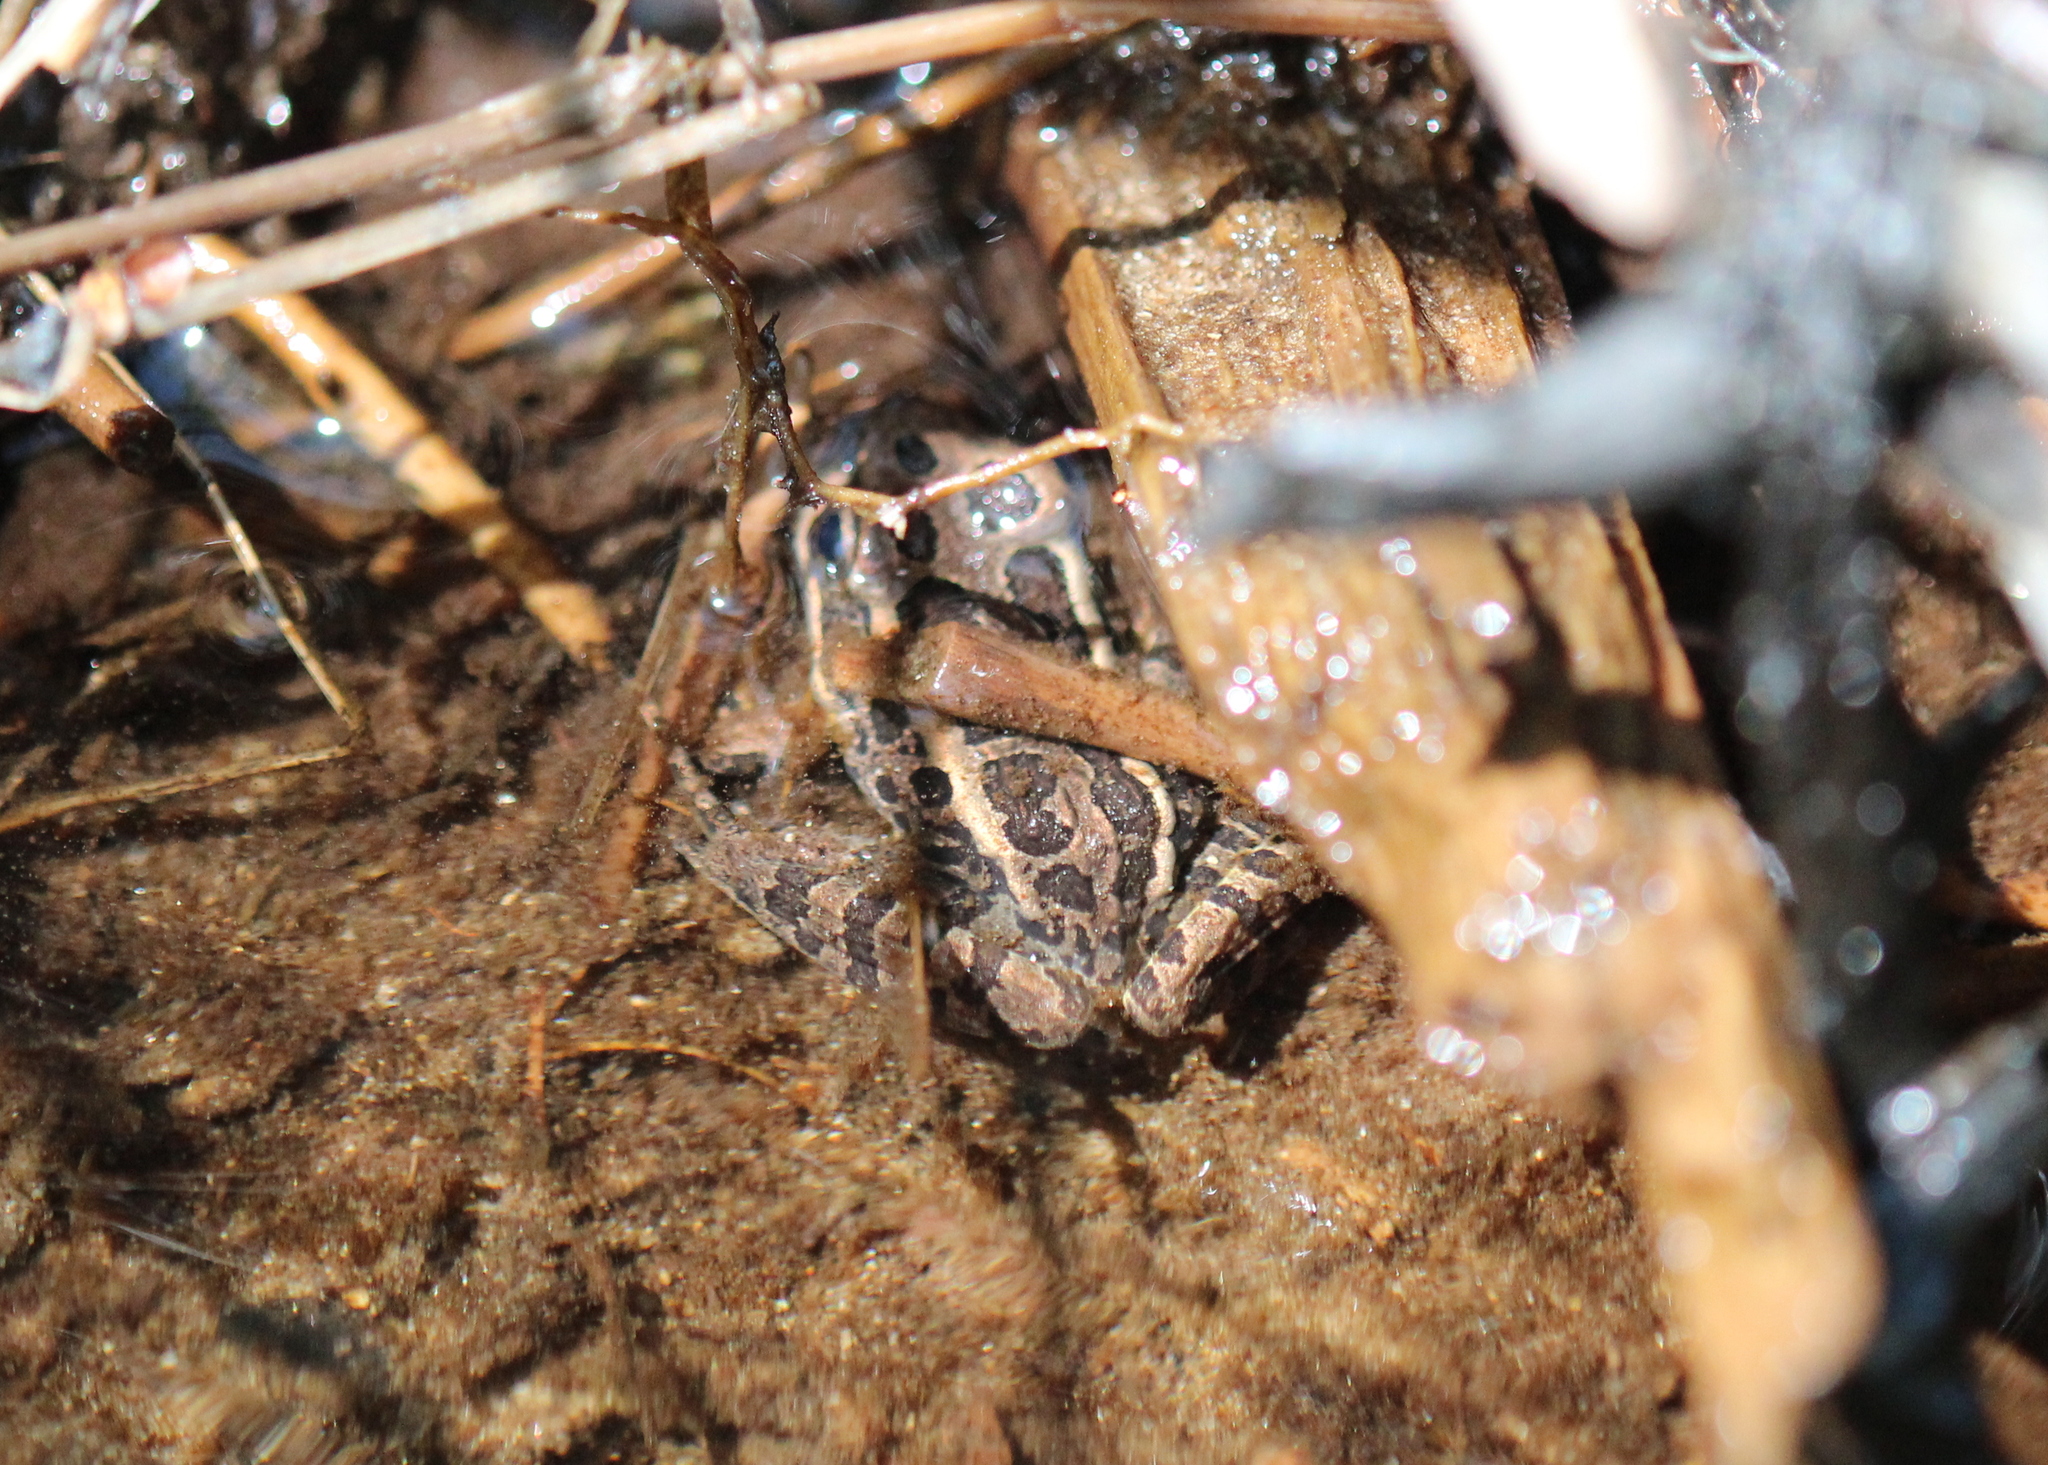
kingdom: Animalia
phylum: Chordata
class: Amphibia
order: Anura
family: Ranidae
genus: Lithobates
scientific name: Lithobates palustris
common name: Pickerel frog
